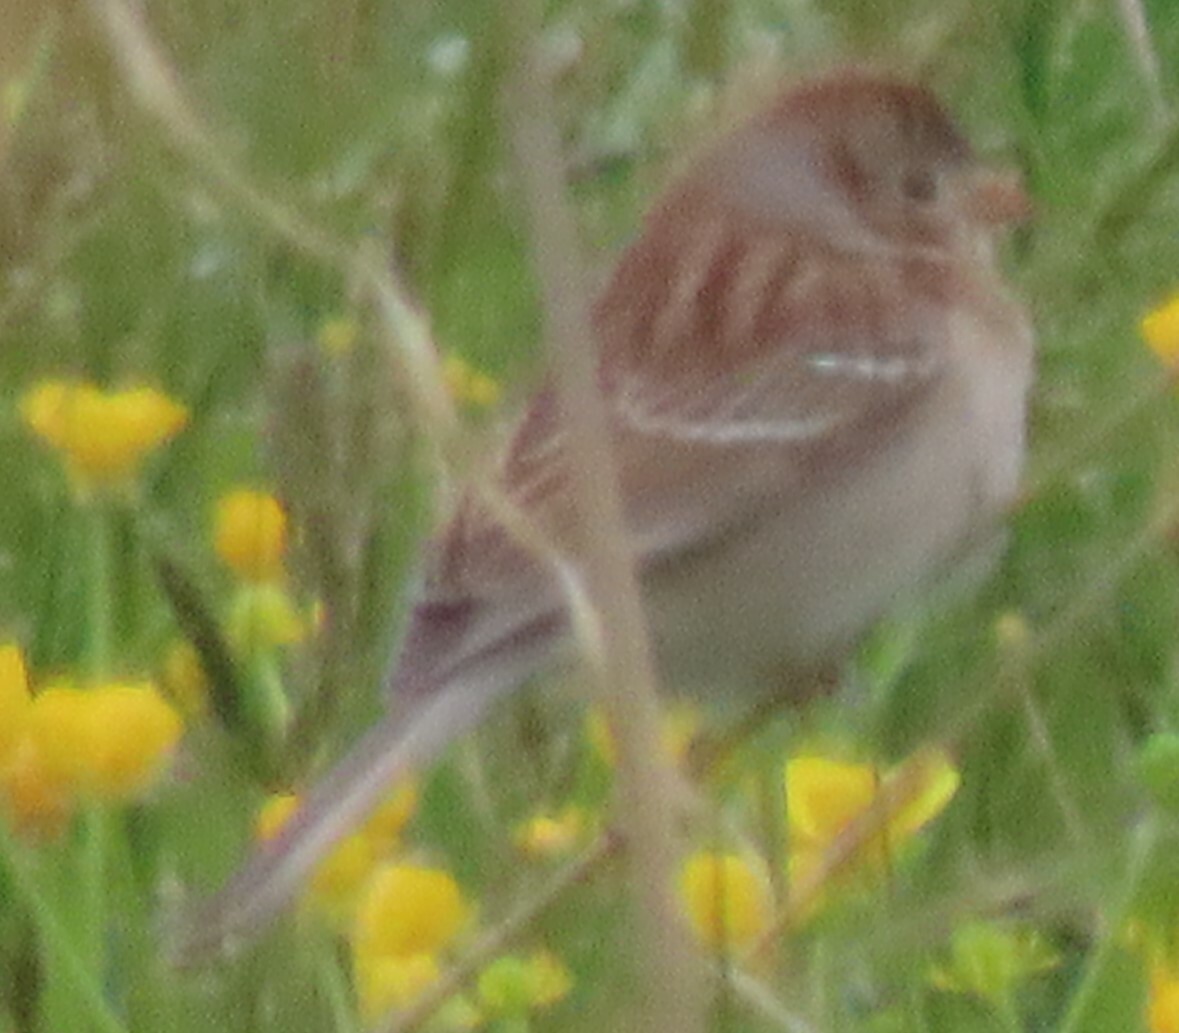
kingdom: Animalia
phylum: Chordata
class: Aves
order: Passeriformes
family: Passerellidae
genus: Spizella
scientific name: Spizella pusilla
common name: Field sparrow
